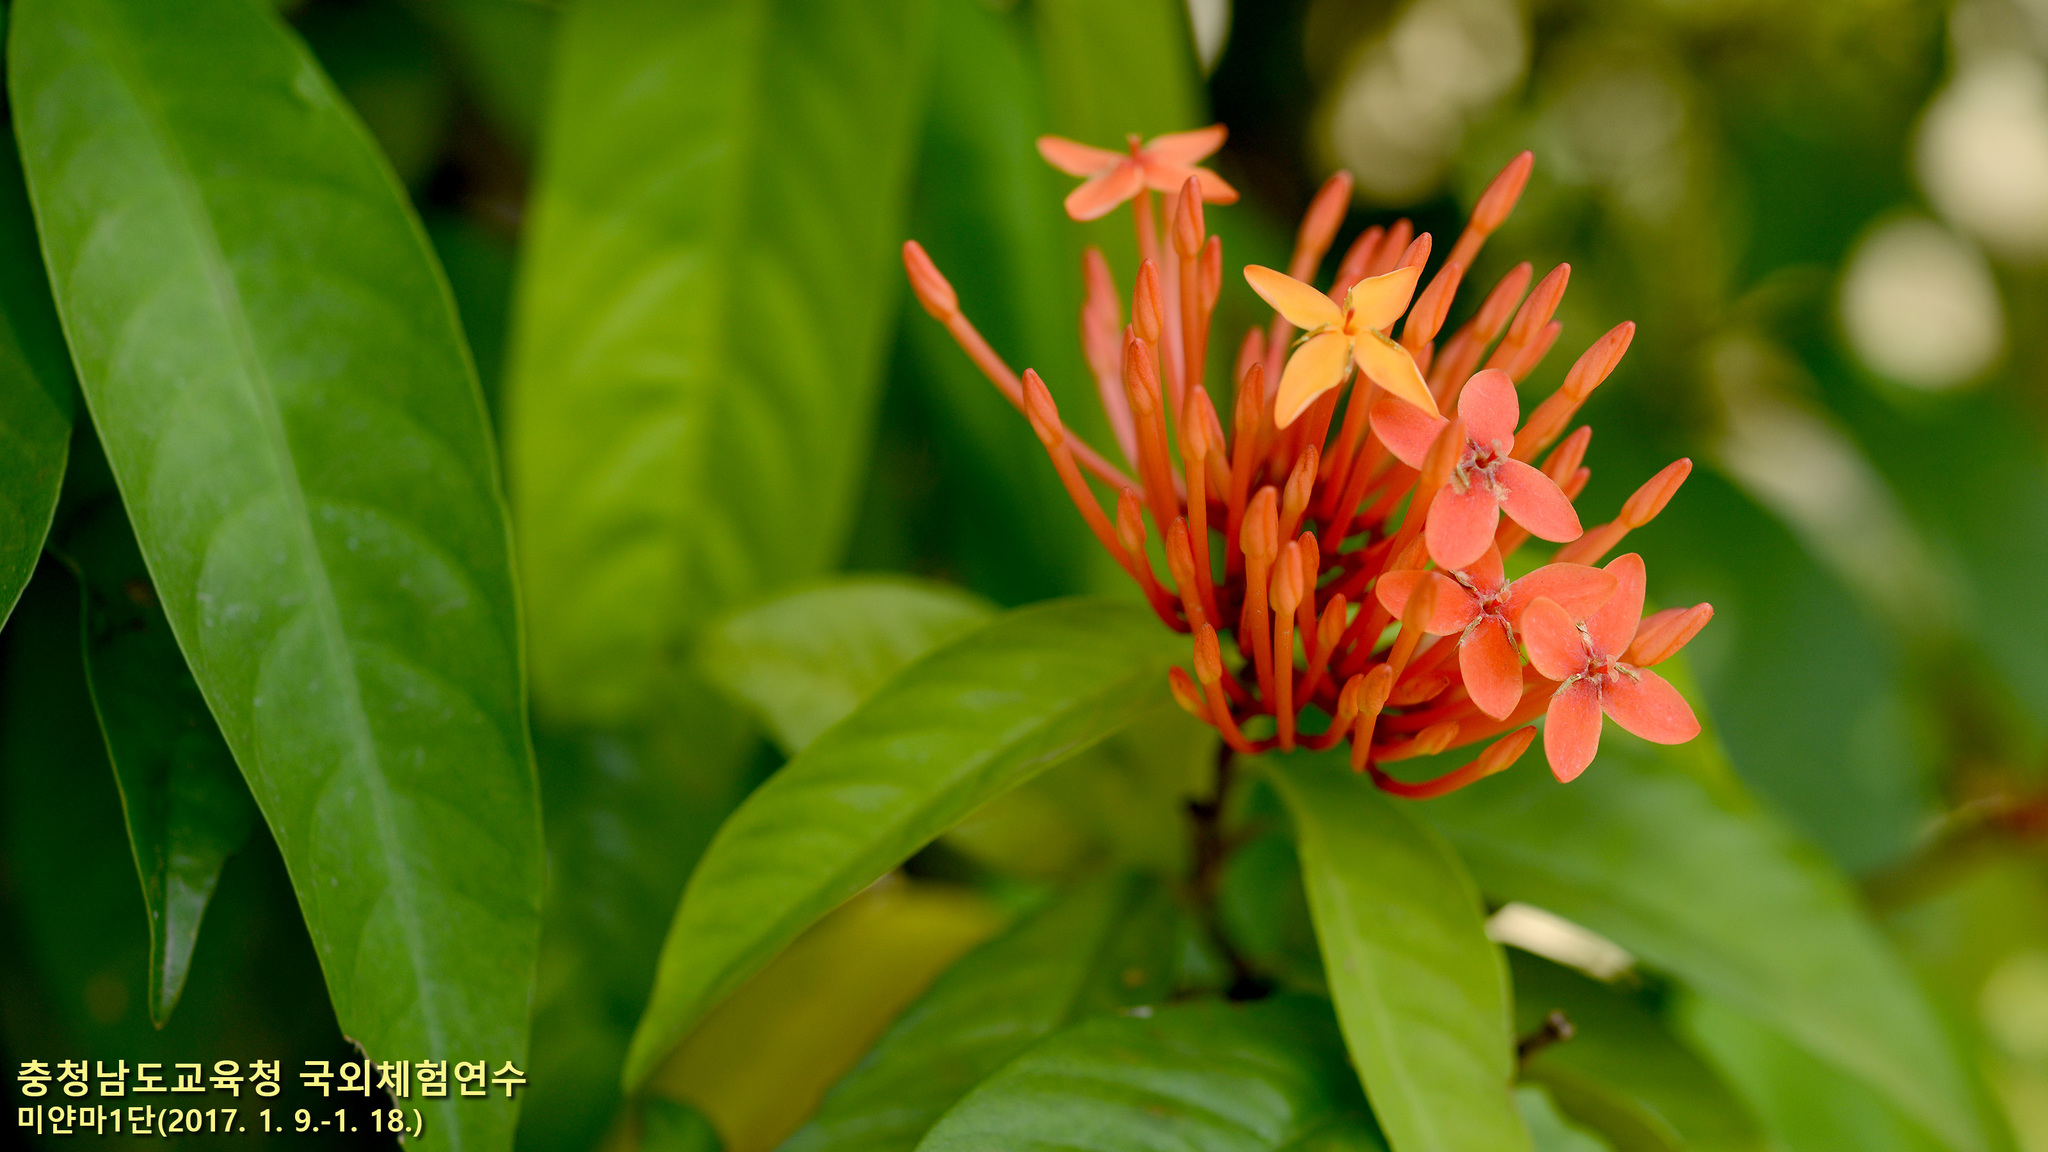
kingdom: Plantae
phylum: Tracheophyta
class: Magnoliopsida
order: Gentianales
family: Rubiaceae
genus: Ixora
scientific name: Ixora coccinea
